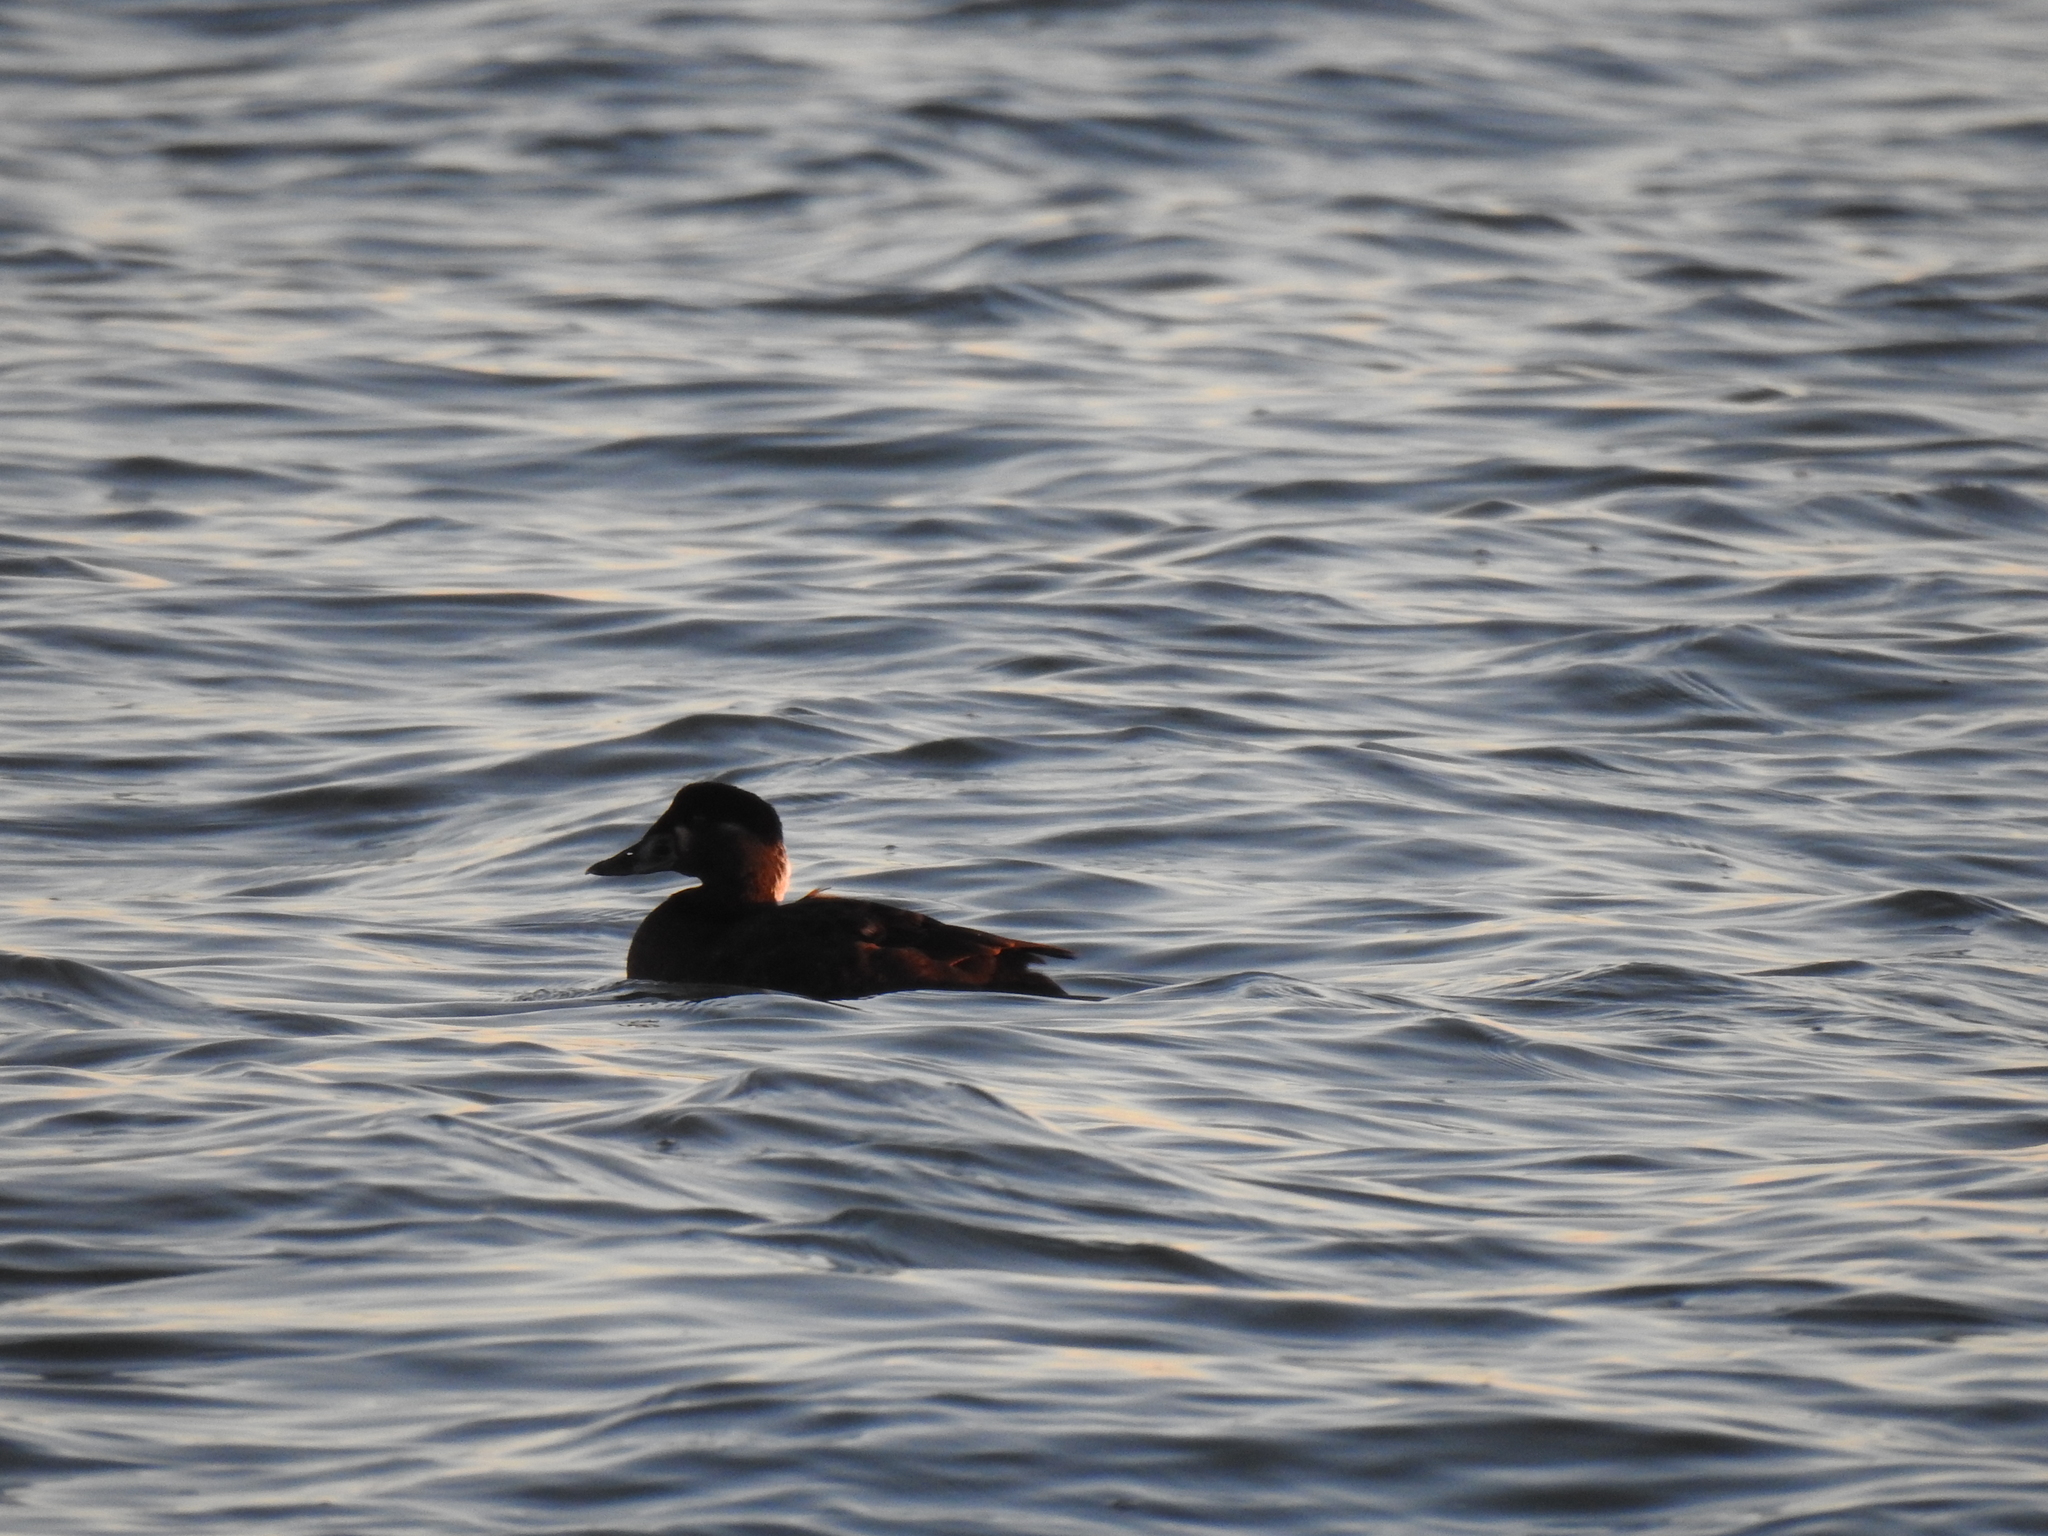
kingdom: Animalia
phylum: Chordata
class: Aves
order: Anseriformes
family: Anatidae
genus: Melanitta
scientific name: Melanitta perspicillata
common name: Surf scoter
